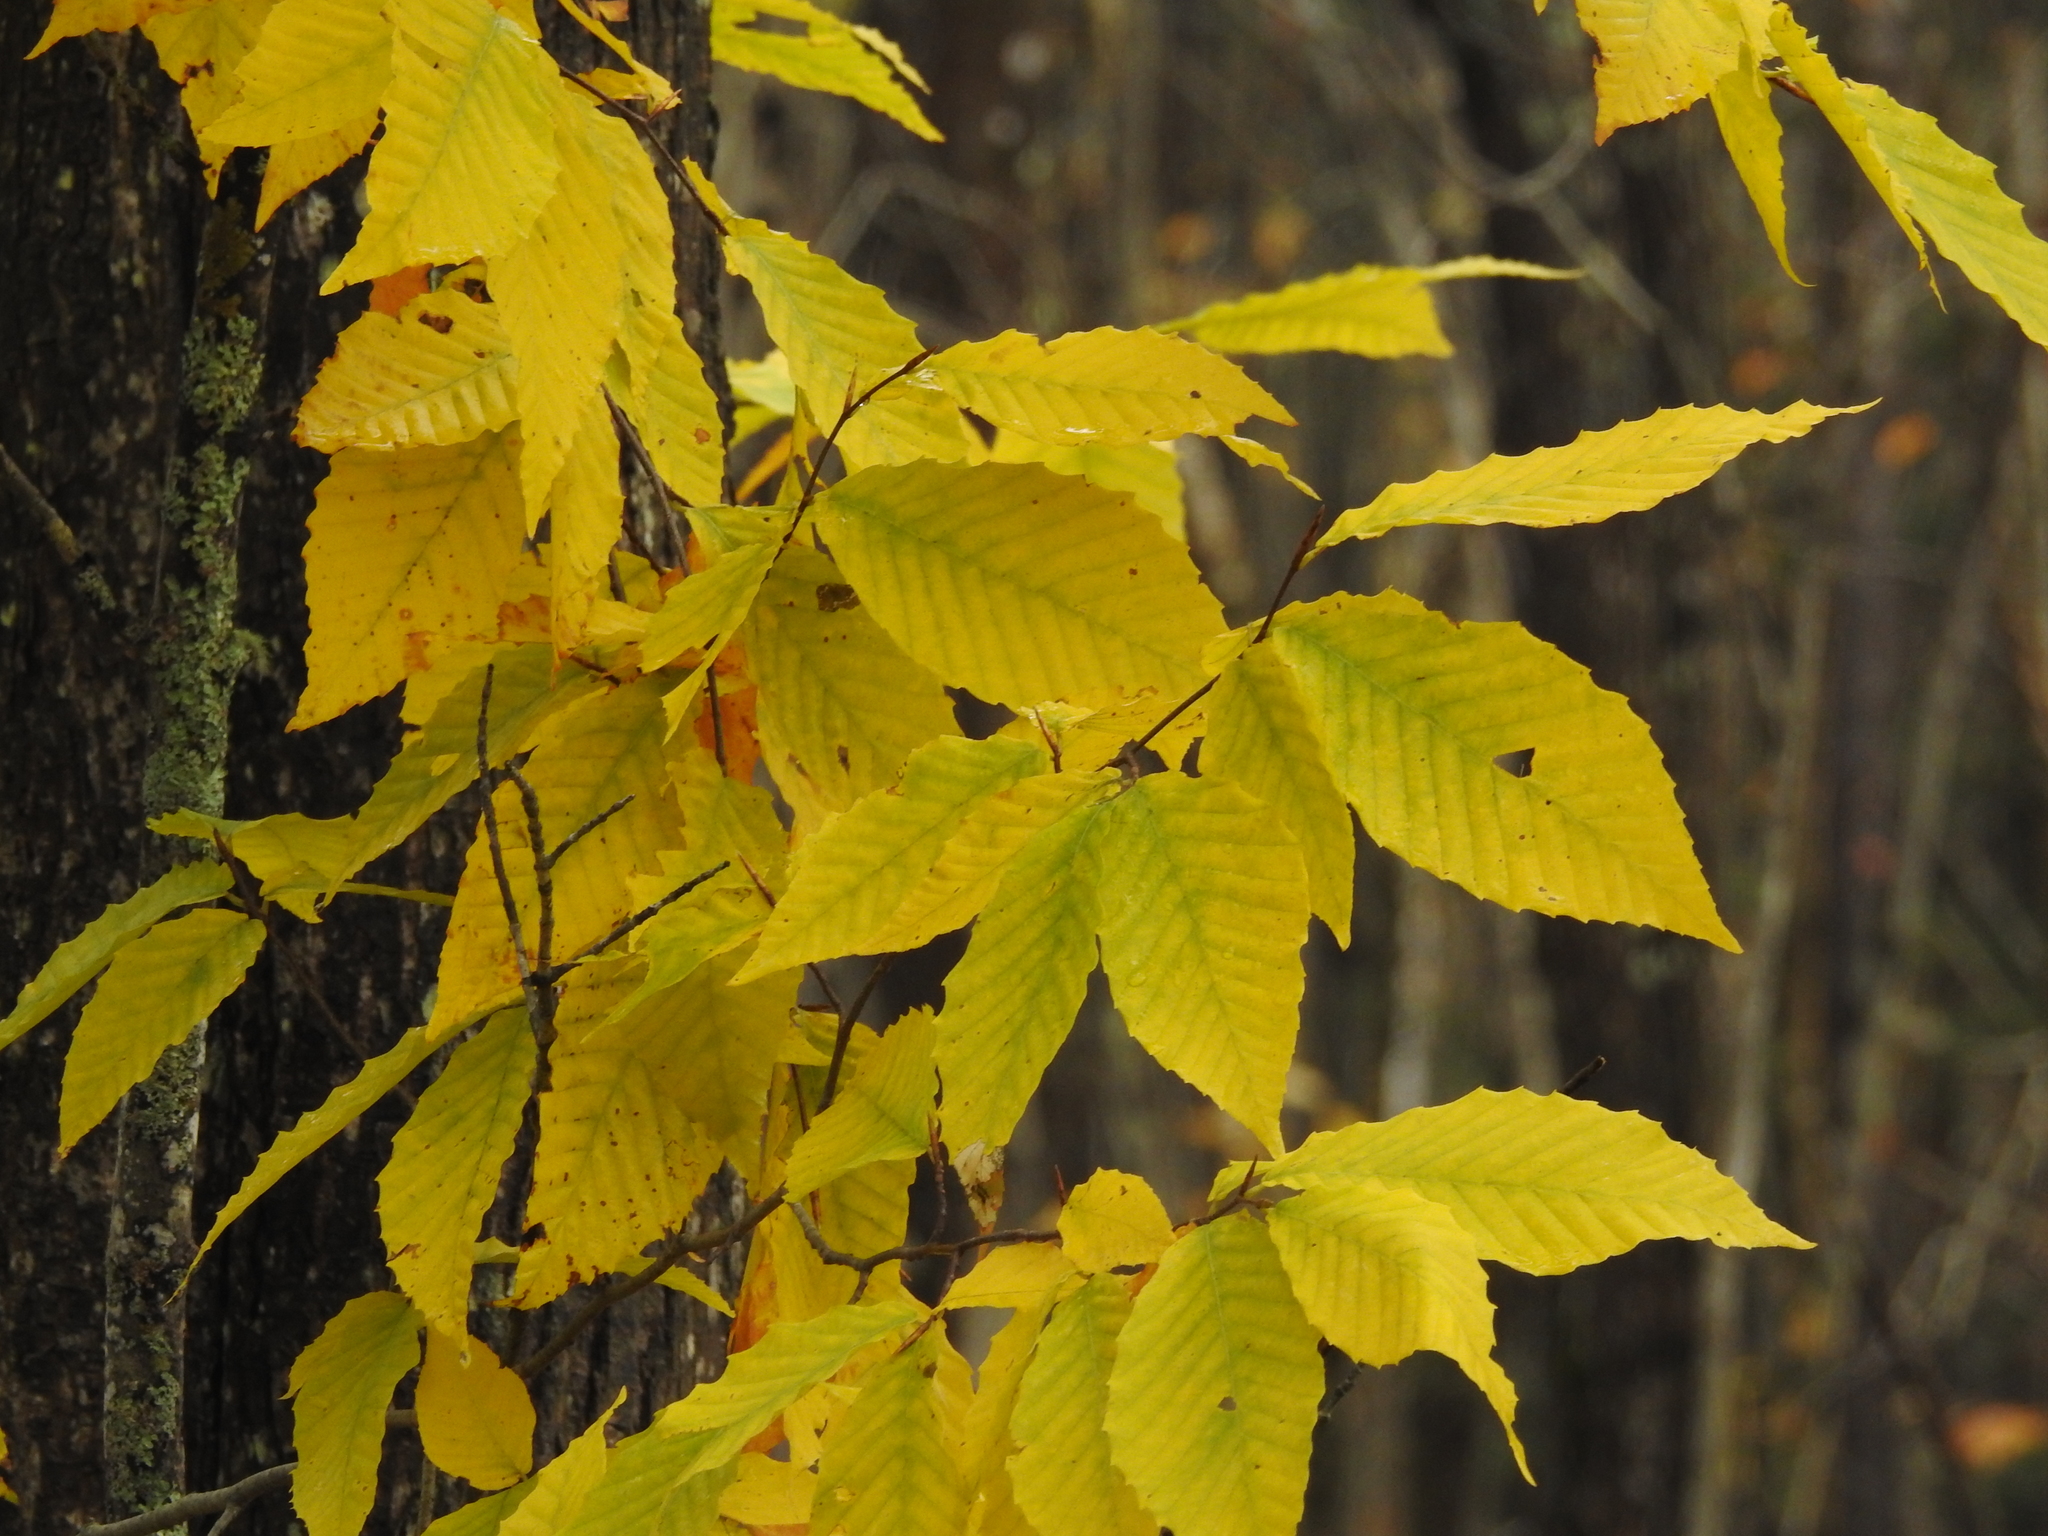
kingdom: Plantae
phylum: Tracheophyta
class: Magnoliopsida
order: Fagales
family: Fagaceae
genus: Fagus
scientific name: Fagus grandifolia
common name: American beech
